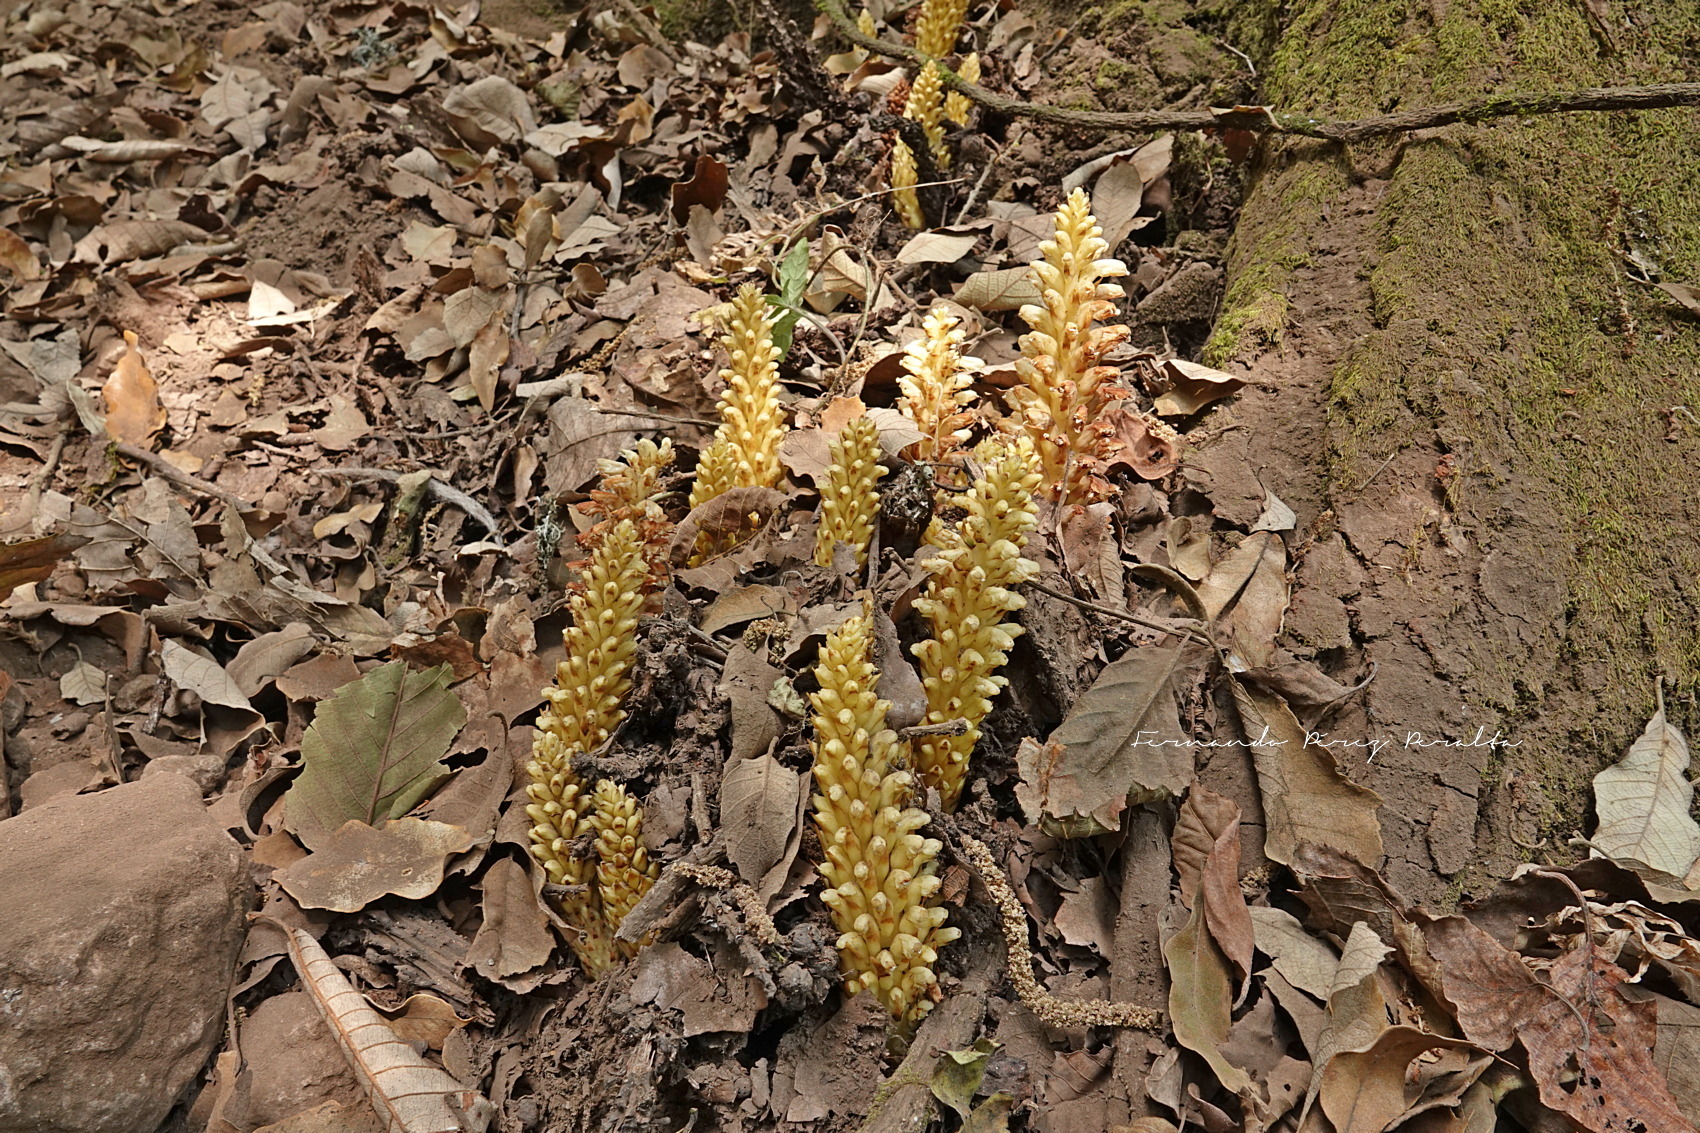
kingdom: Plantae
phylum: Tracheophyta
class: Magnoliopsida
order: Lamiales
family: Orobanchaceae
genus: Conopholis
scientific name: Conopholis alpina
